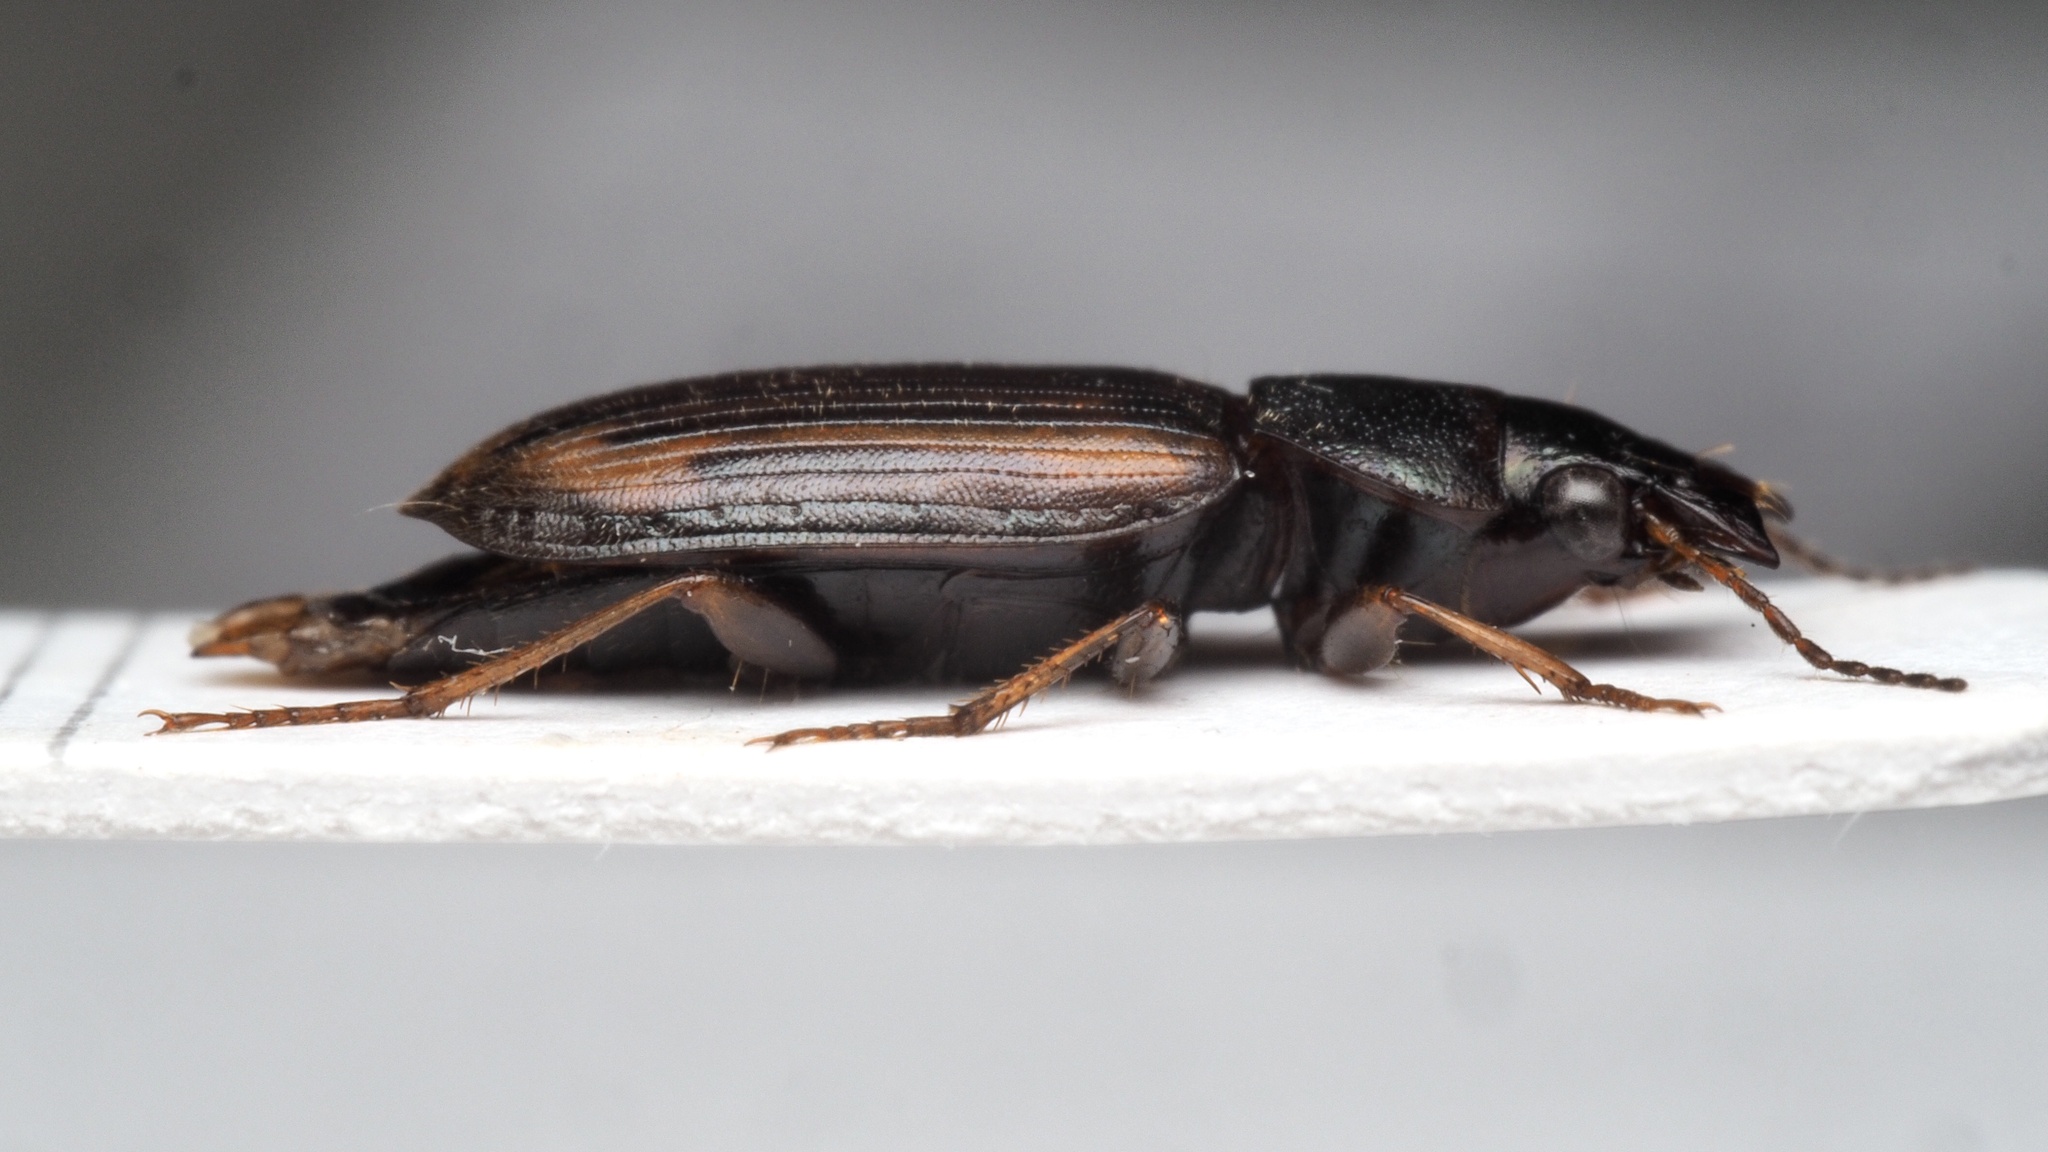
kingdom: Animalia
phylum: Arthropoda
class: Insecta
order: Coleoptera
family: Carabidae
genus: Platymetopus
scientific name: Platymetopus figuratus
